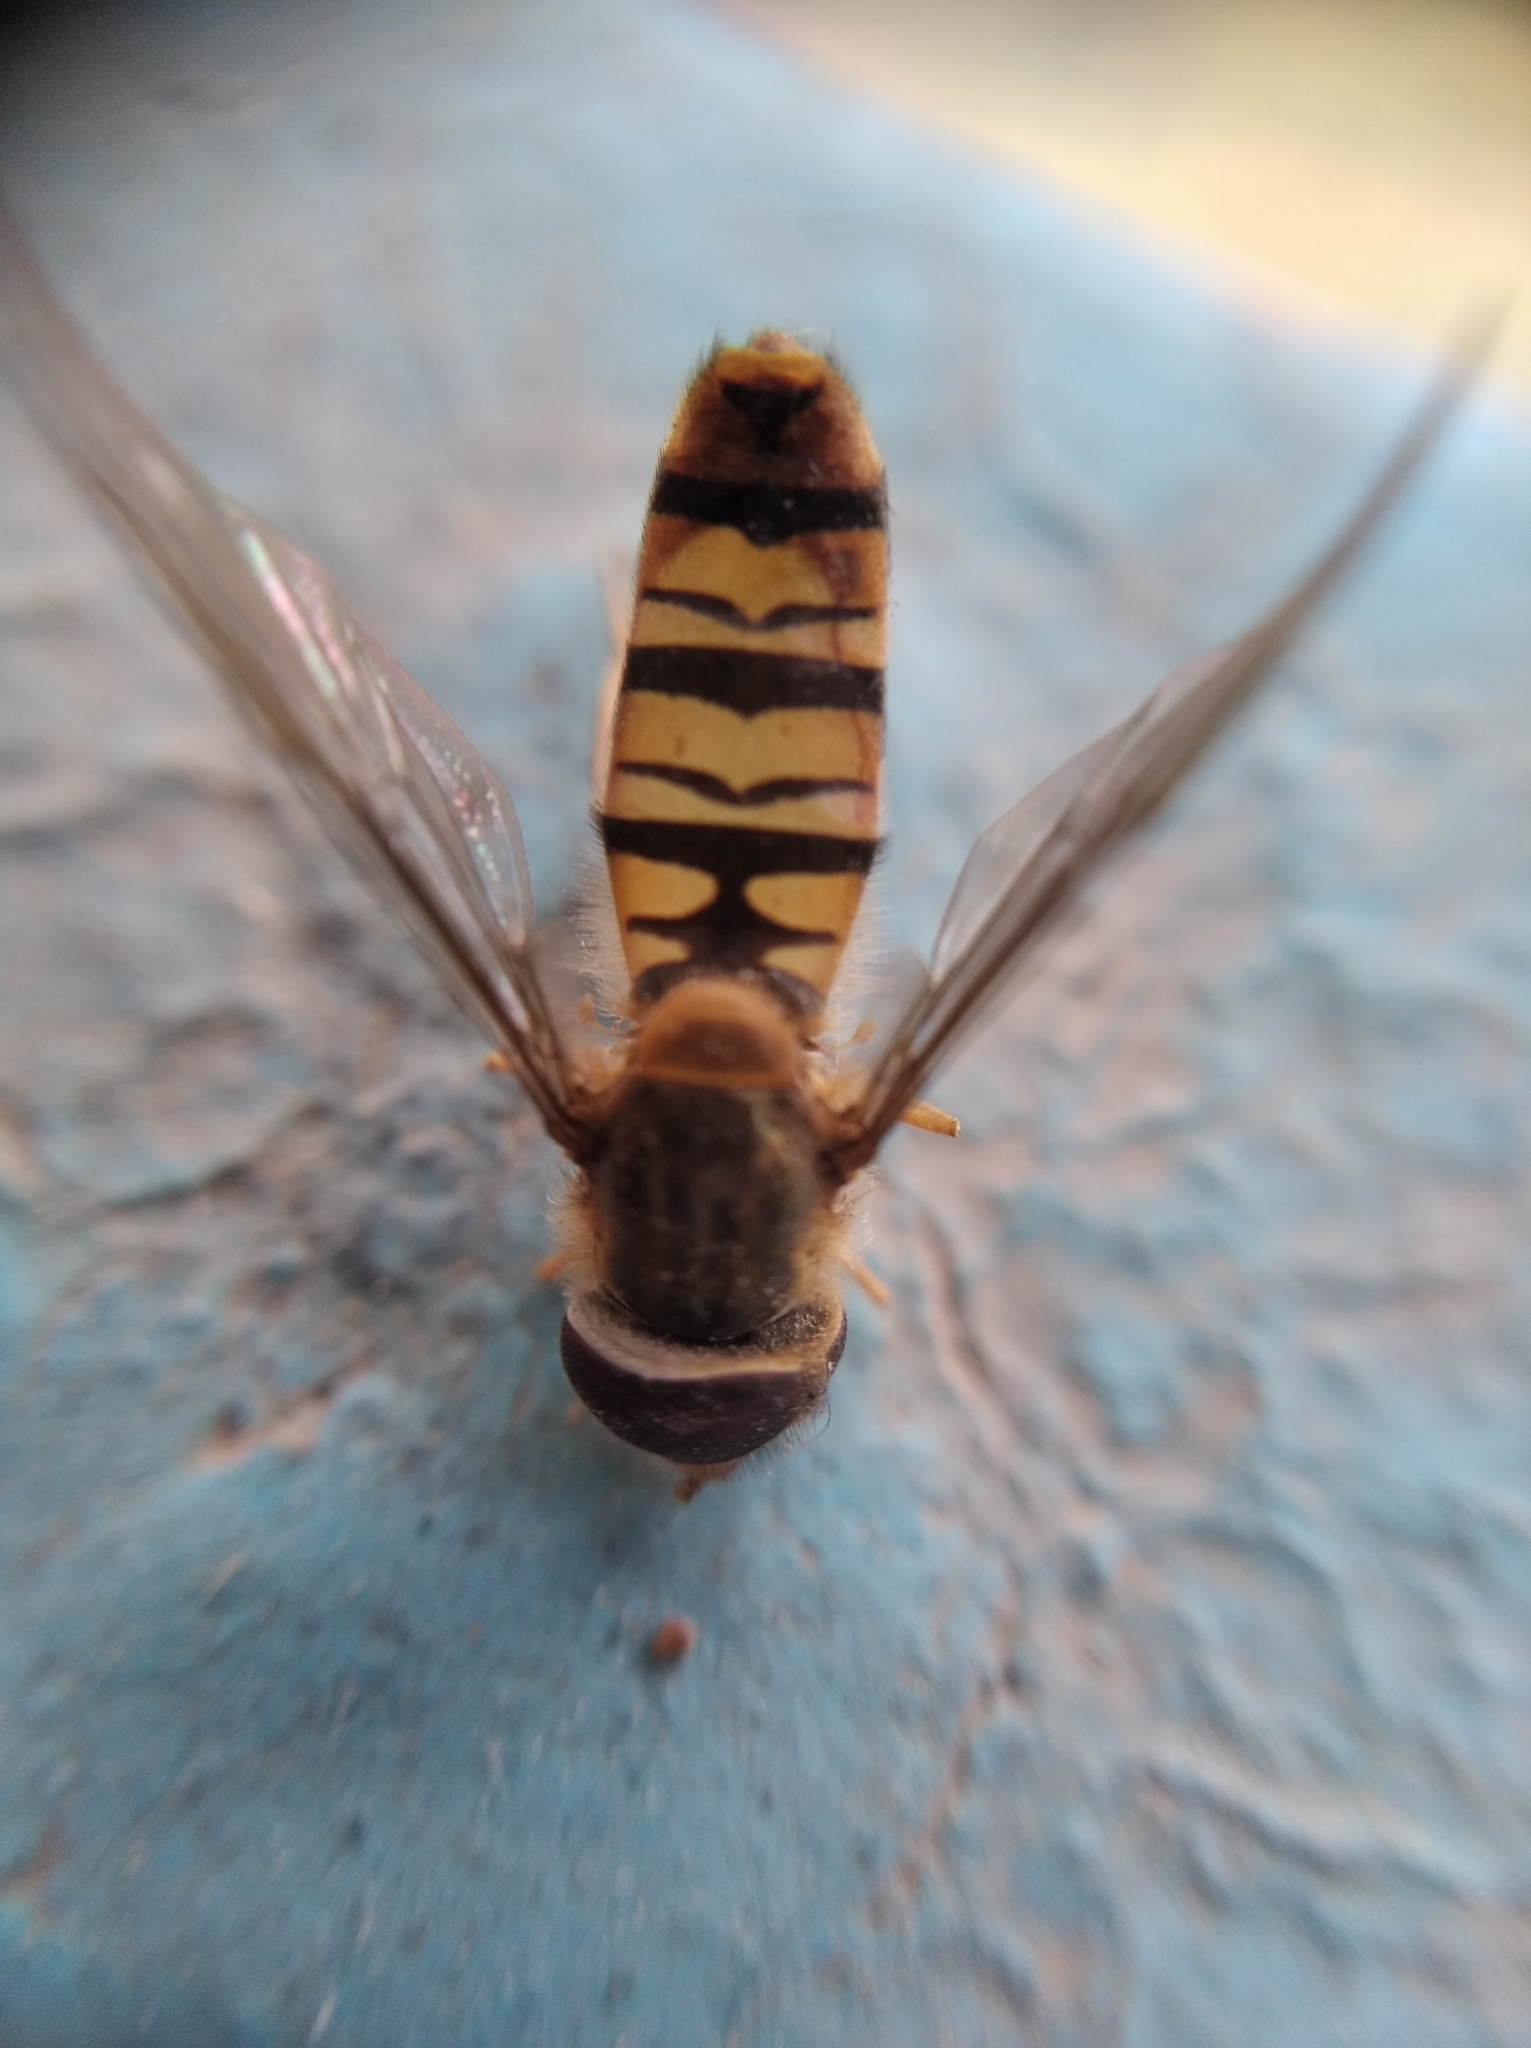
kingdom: Animalia
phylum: Arthropoda
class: Insecta
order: Diptera
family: Syrphidae
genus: Episyrphus
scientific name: Episyrphus balteatus
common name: Marmalade hoverfly
